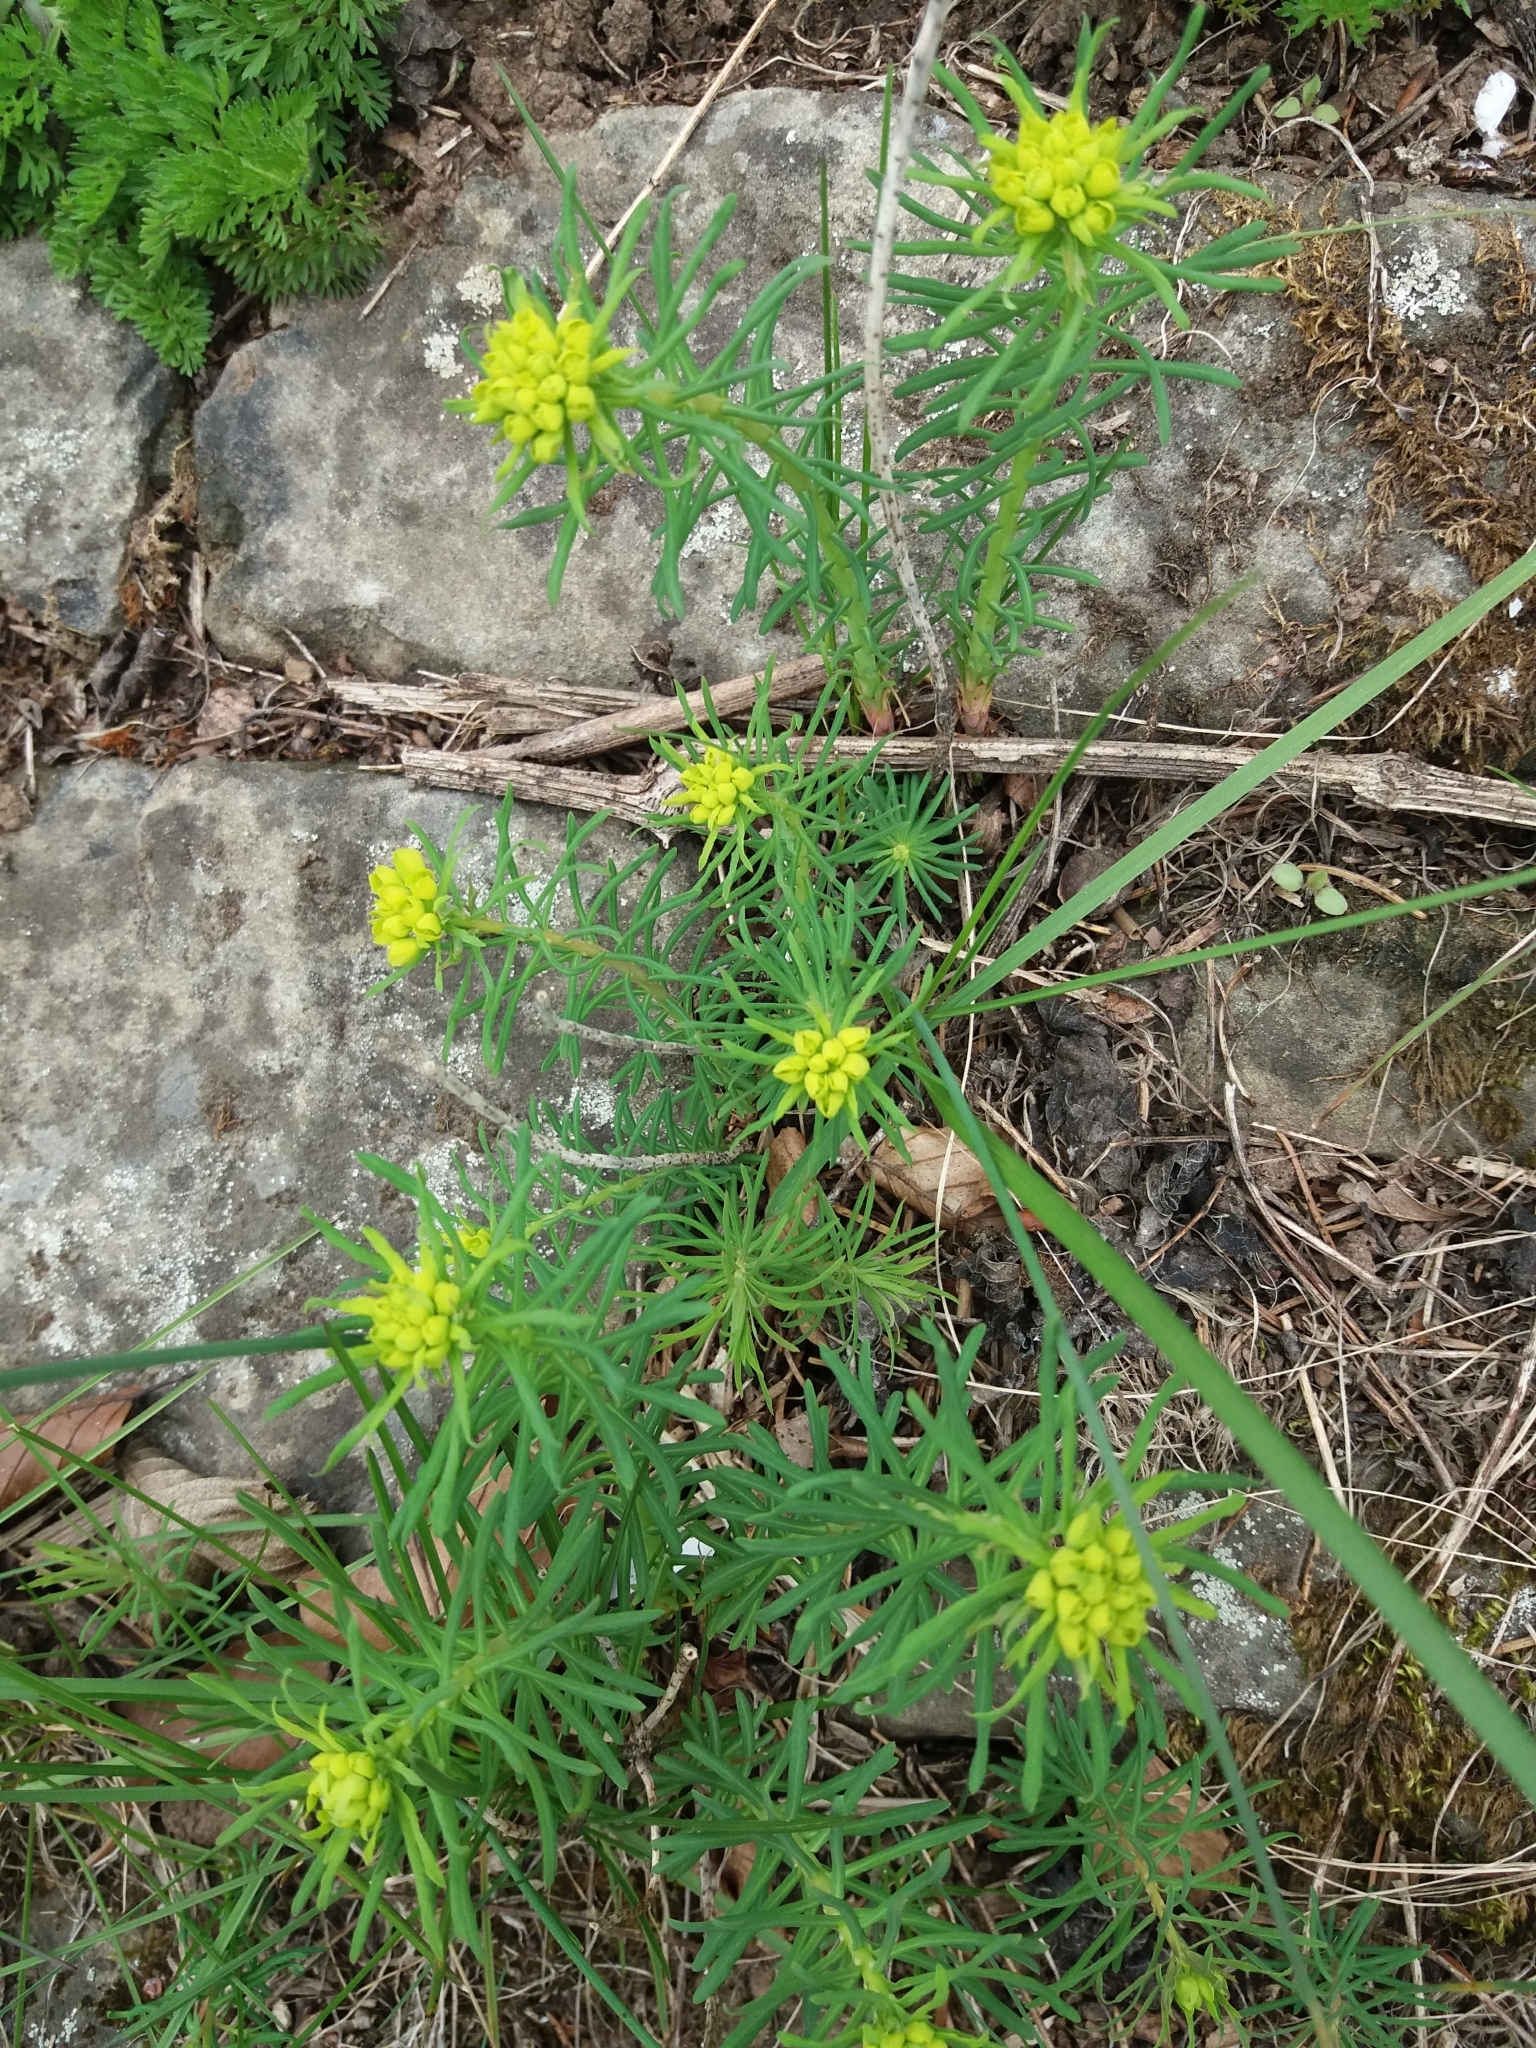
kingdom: Plantae
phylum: Tracheophyta
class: Magnoliopsida
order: Malpighiales
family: Euphorbiaceae
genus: Euphorbia
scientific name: Euphorbia cyparissias
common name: Cypress spurge
